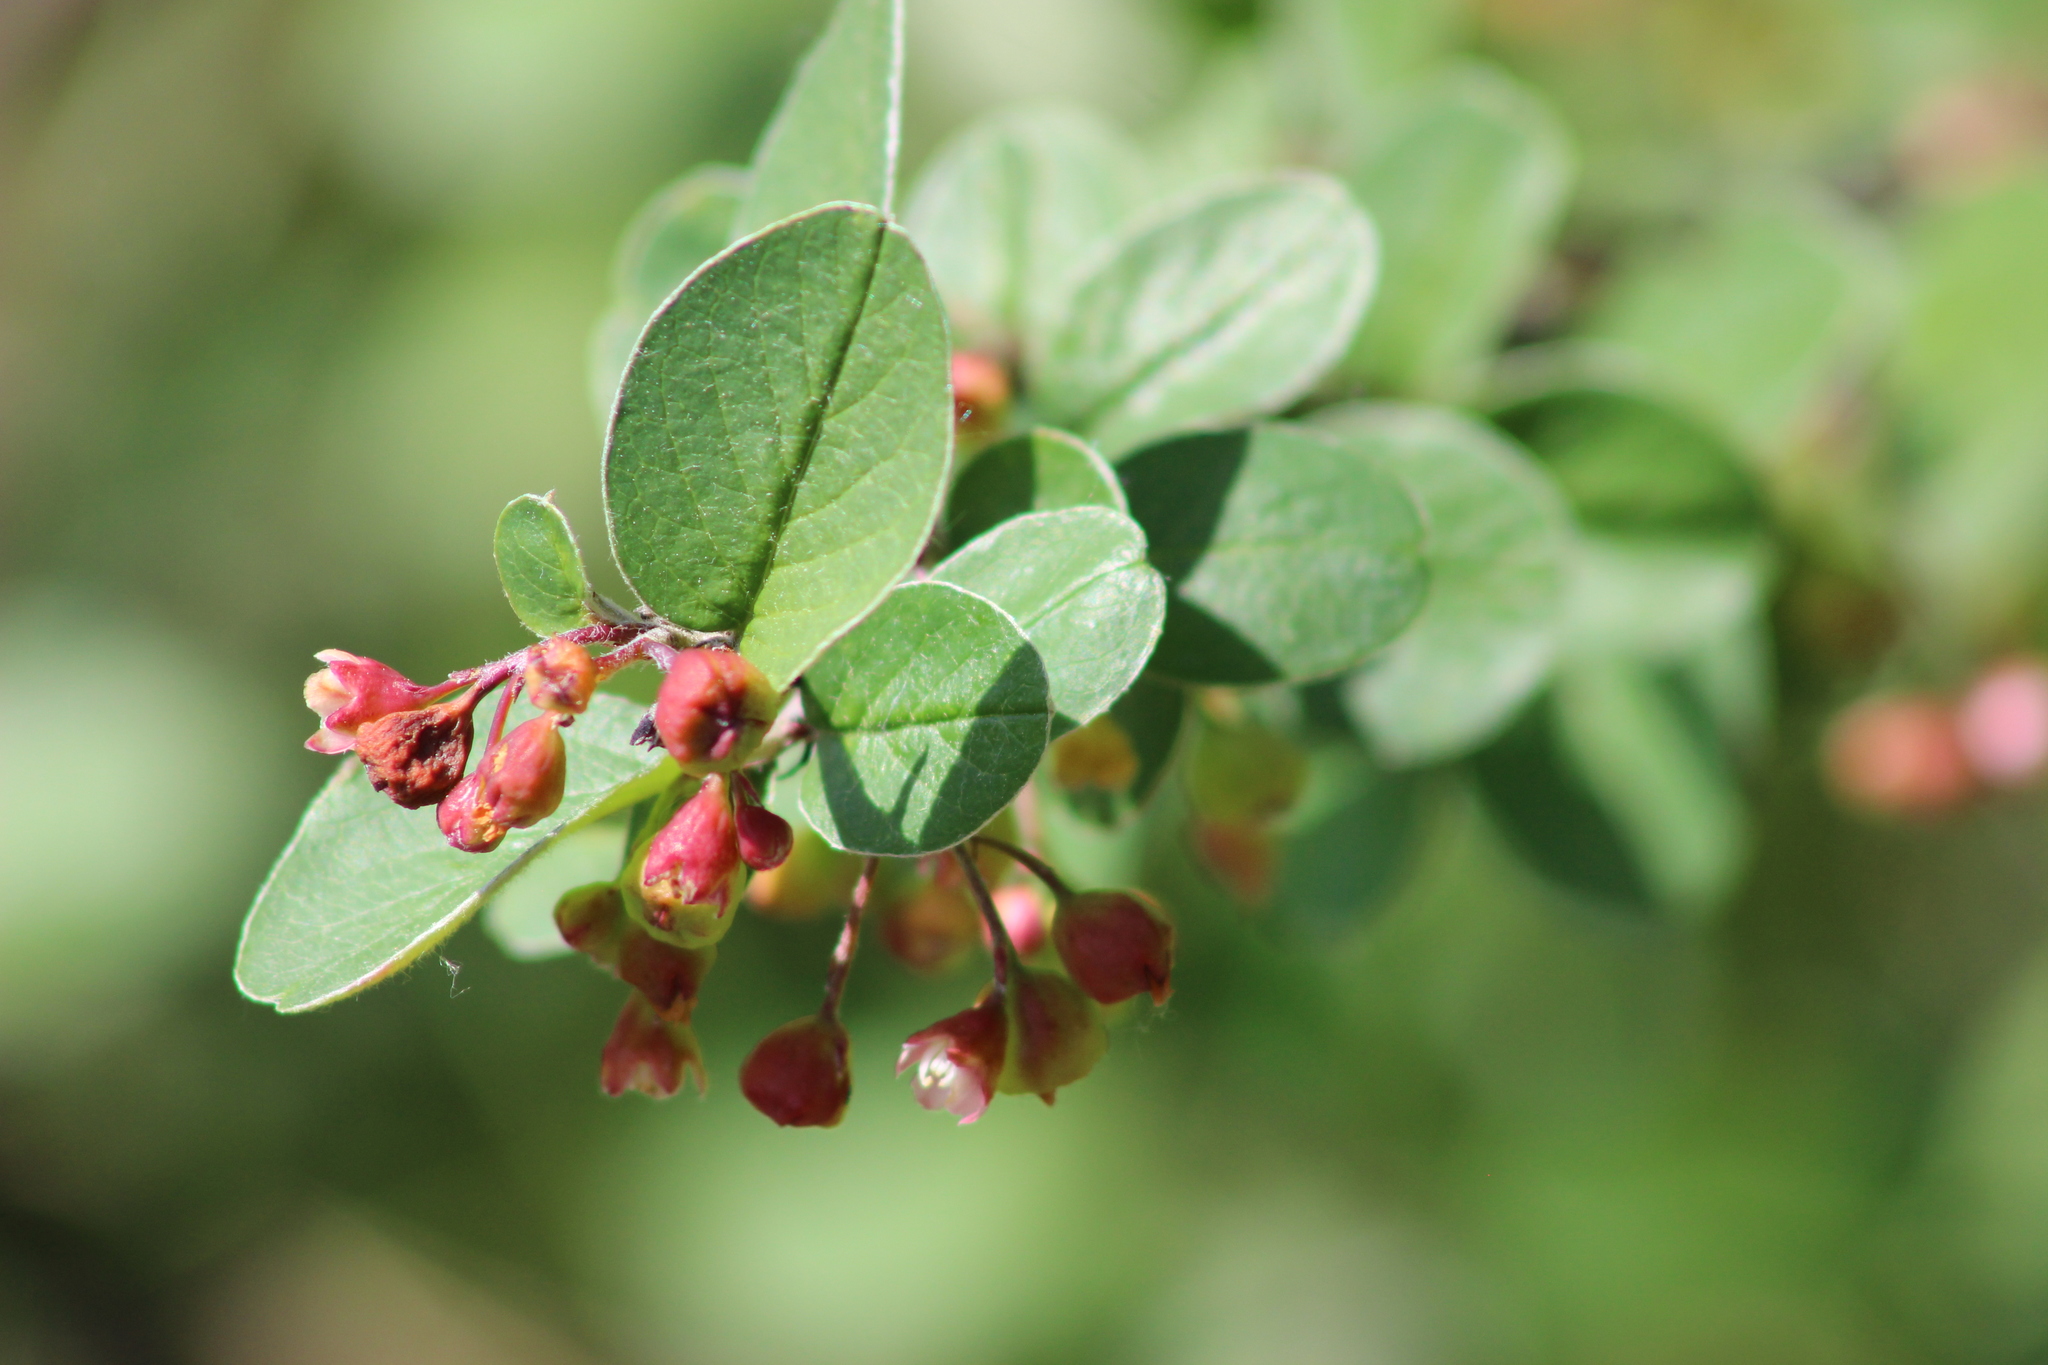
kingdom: Plantae
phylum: Tracheophyta
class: Magnoliopsida
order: Rosales
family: Rosaceae
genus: Cotoneaster
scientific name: Cotoneaster melanocarpus
